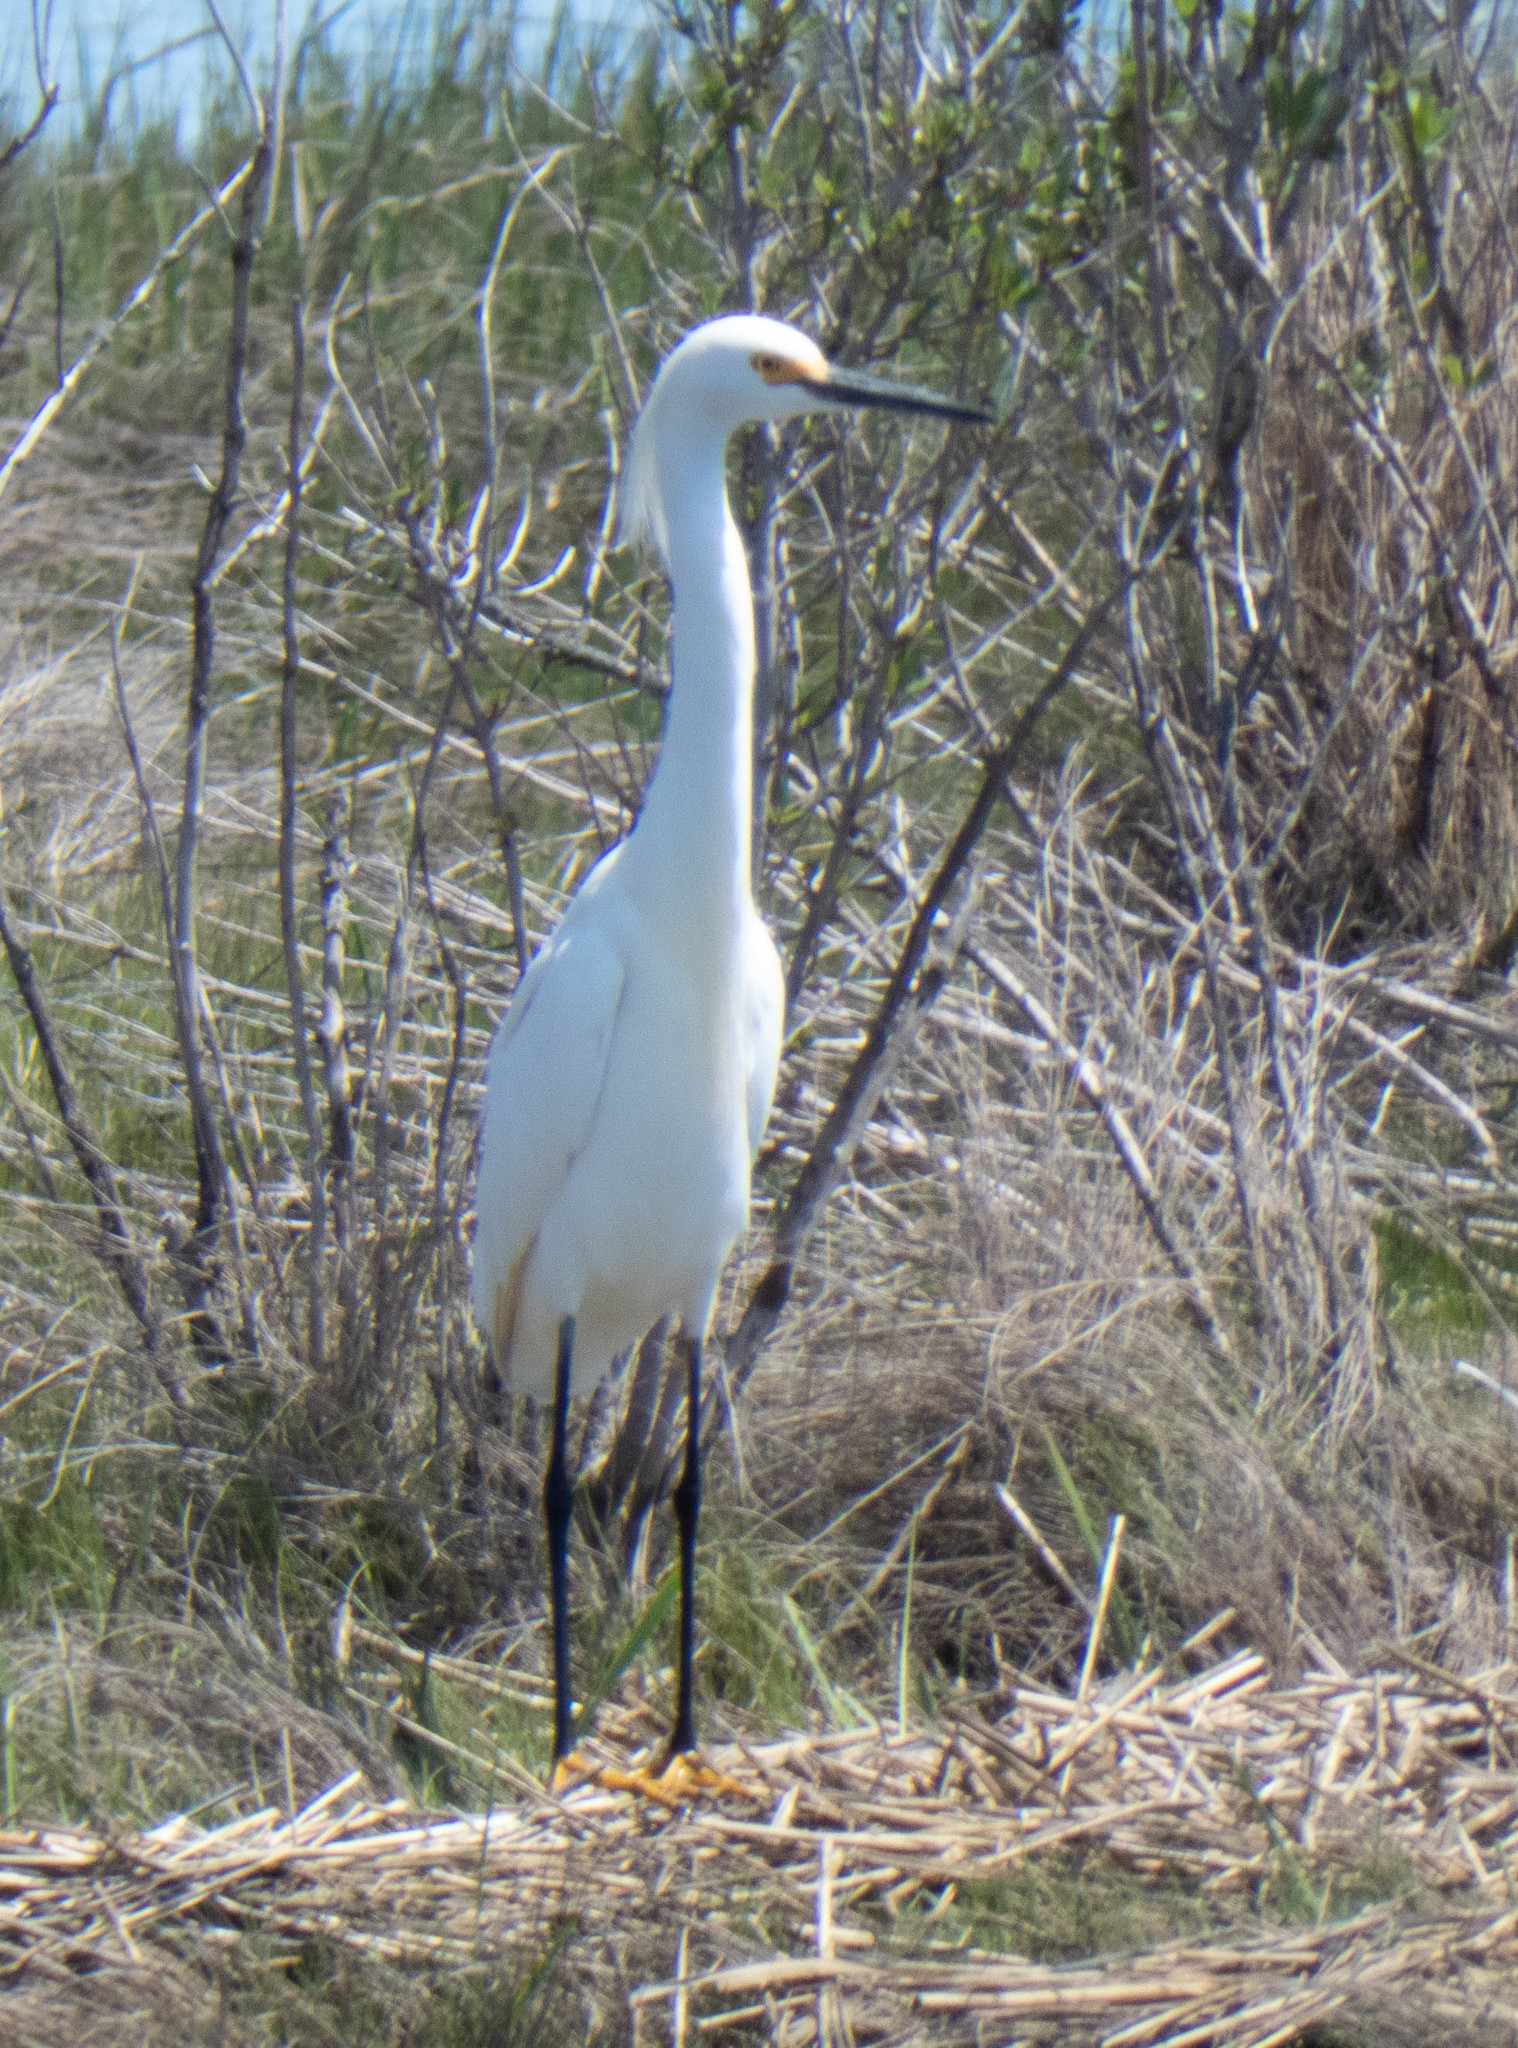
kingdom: Animalia
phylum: Chordata
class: Aves
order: Pelecaniformes
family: Ardeidae
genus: Egretta
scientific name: Egretta thula
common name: Snowy egret
